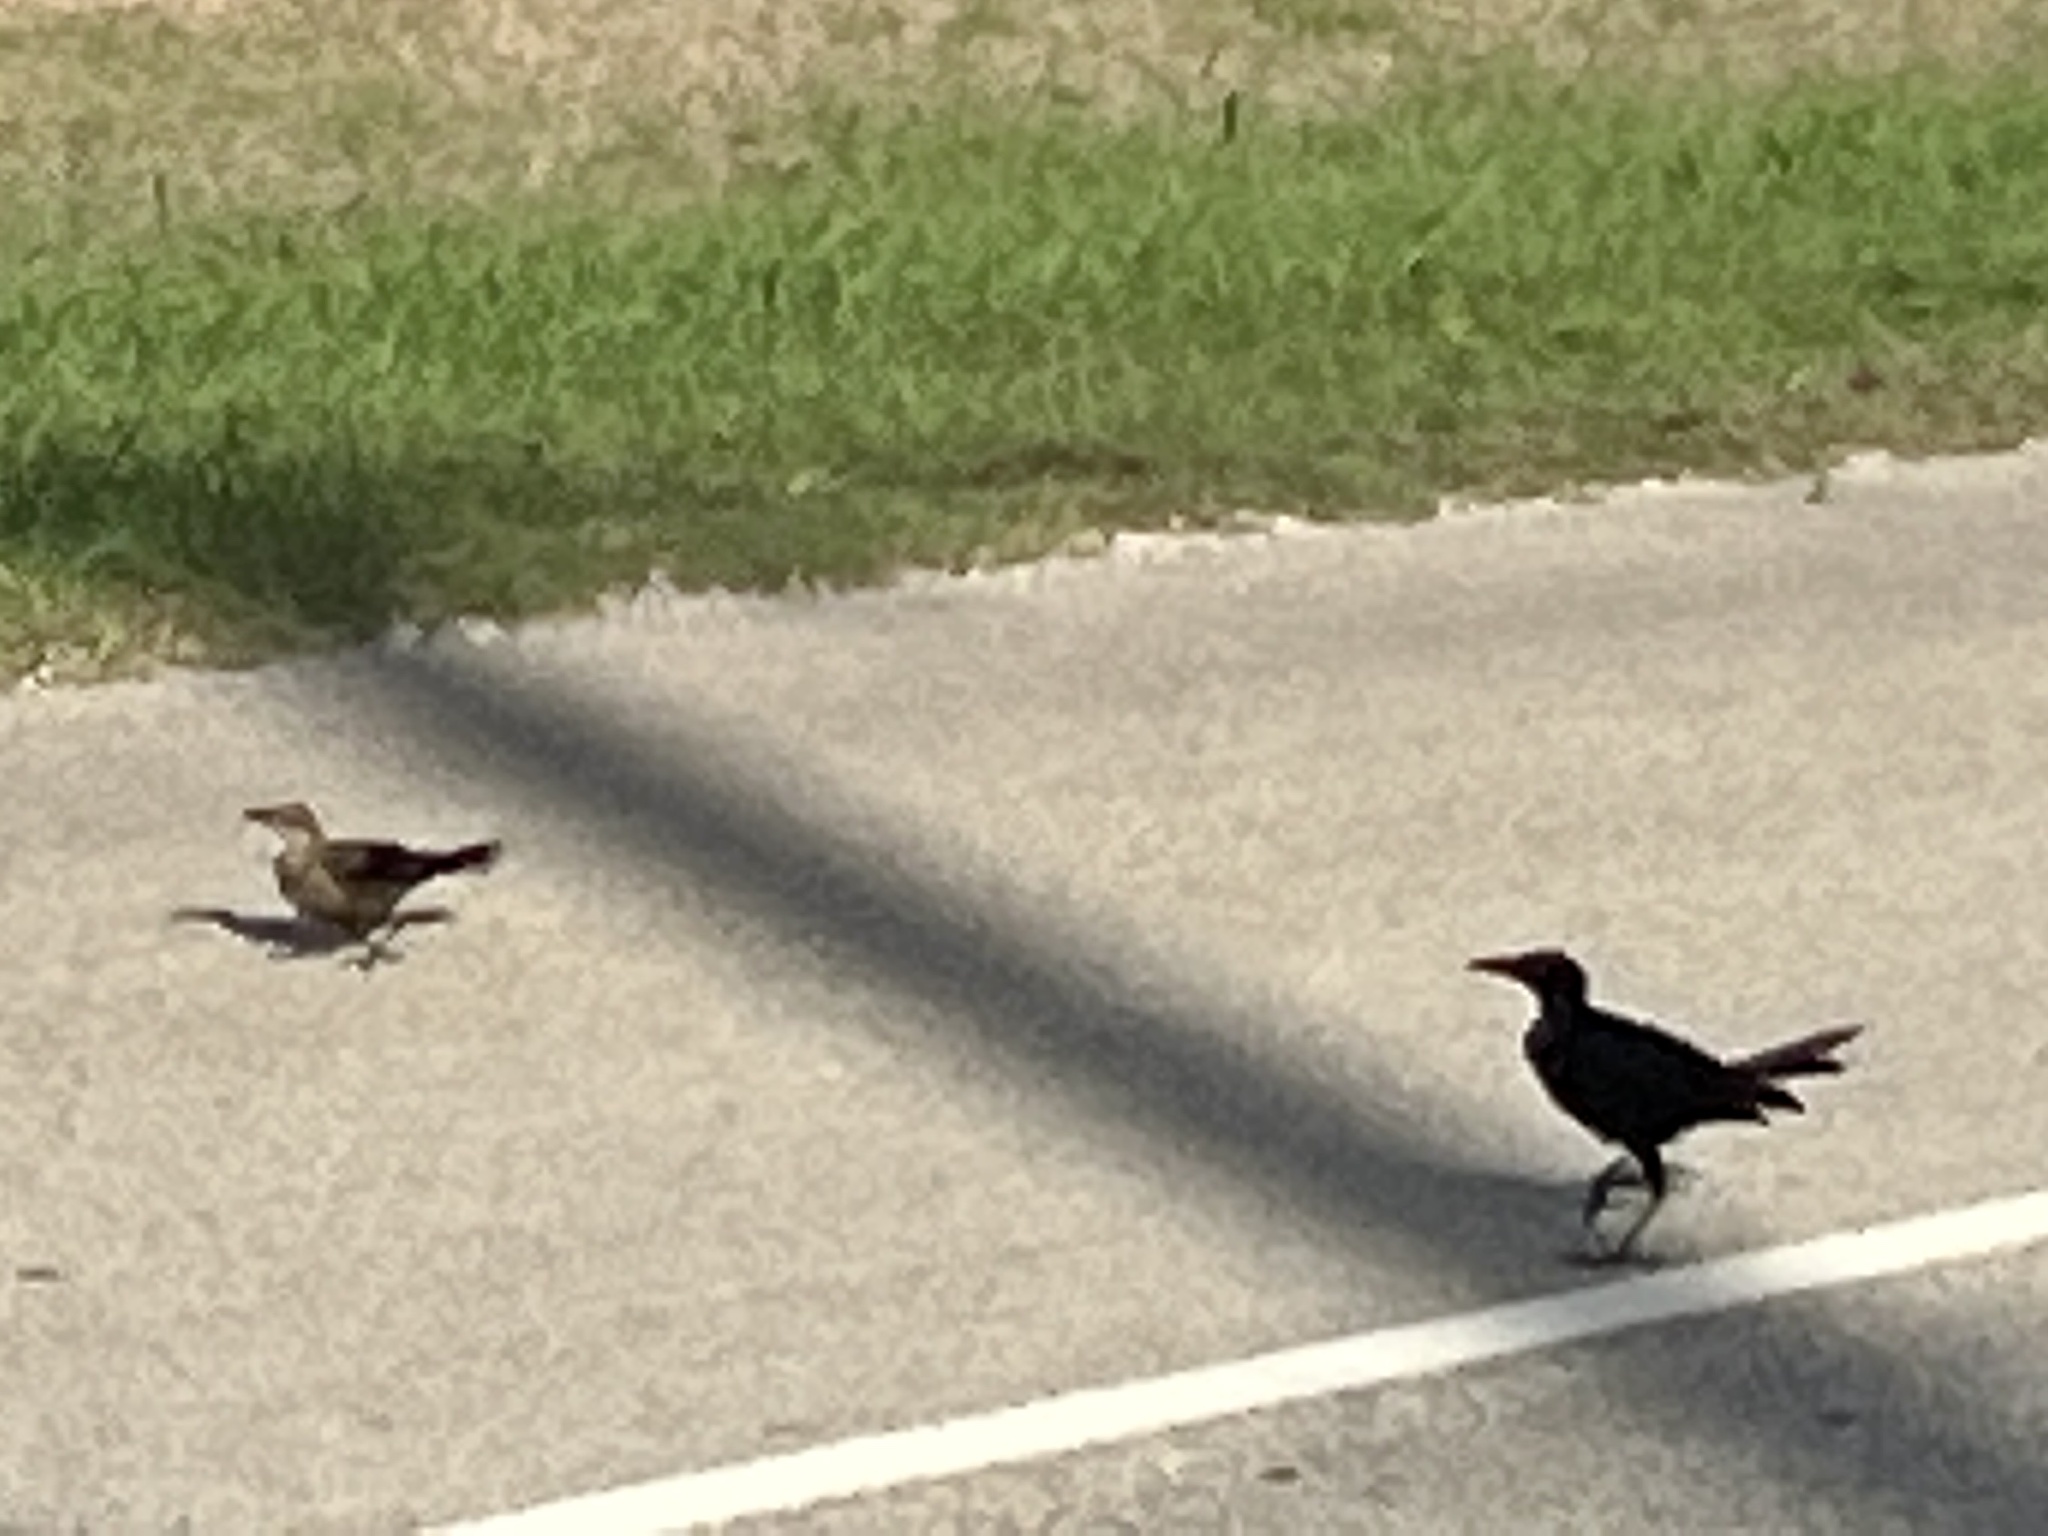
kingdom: Animalia
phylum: Chordata
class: Aves
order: Passeriformes
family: Icteridae
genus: Quiscalus
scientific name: Quiscalus mexicanus
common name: Great-tailed grackle
